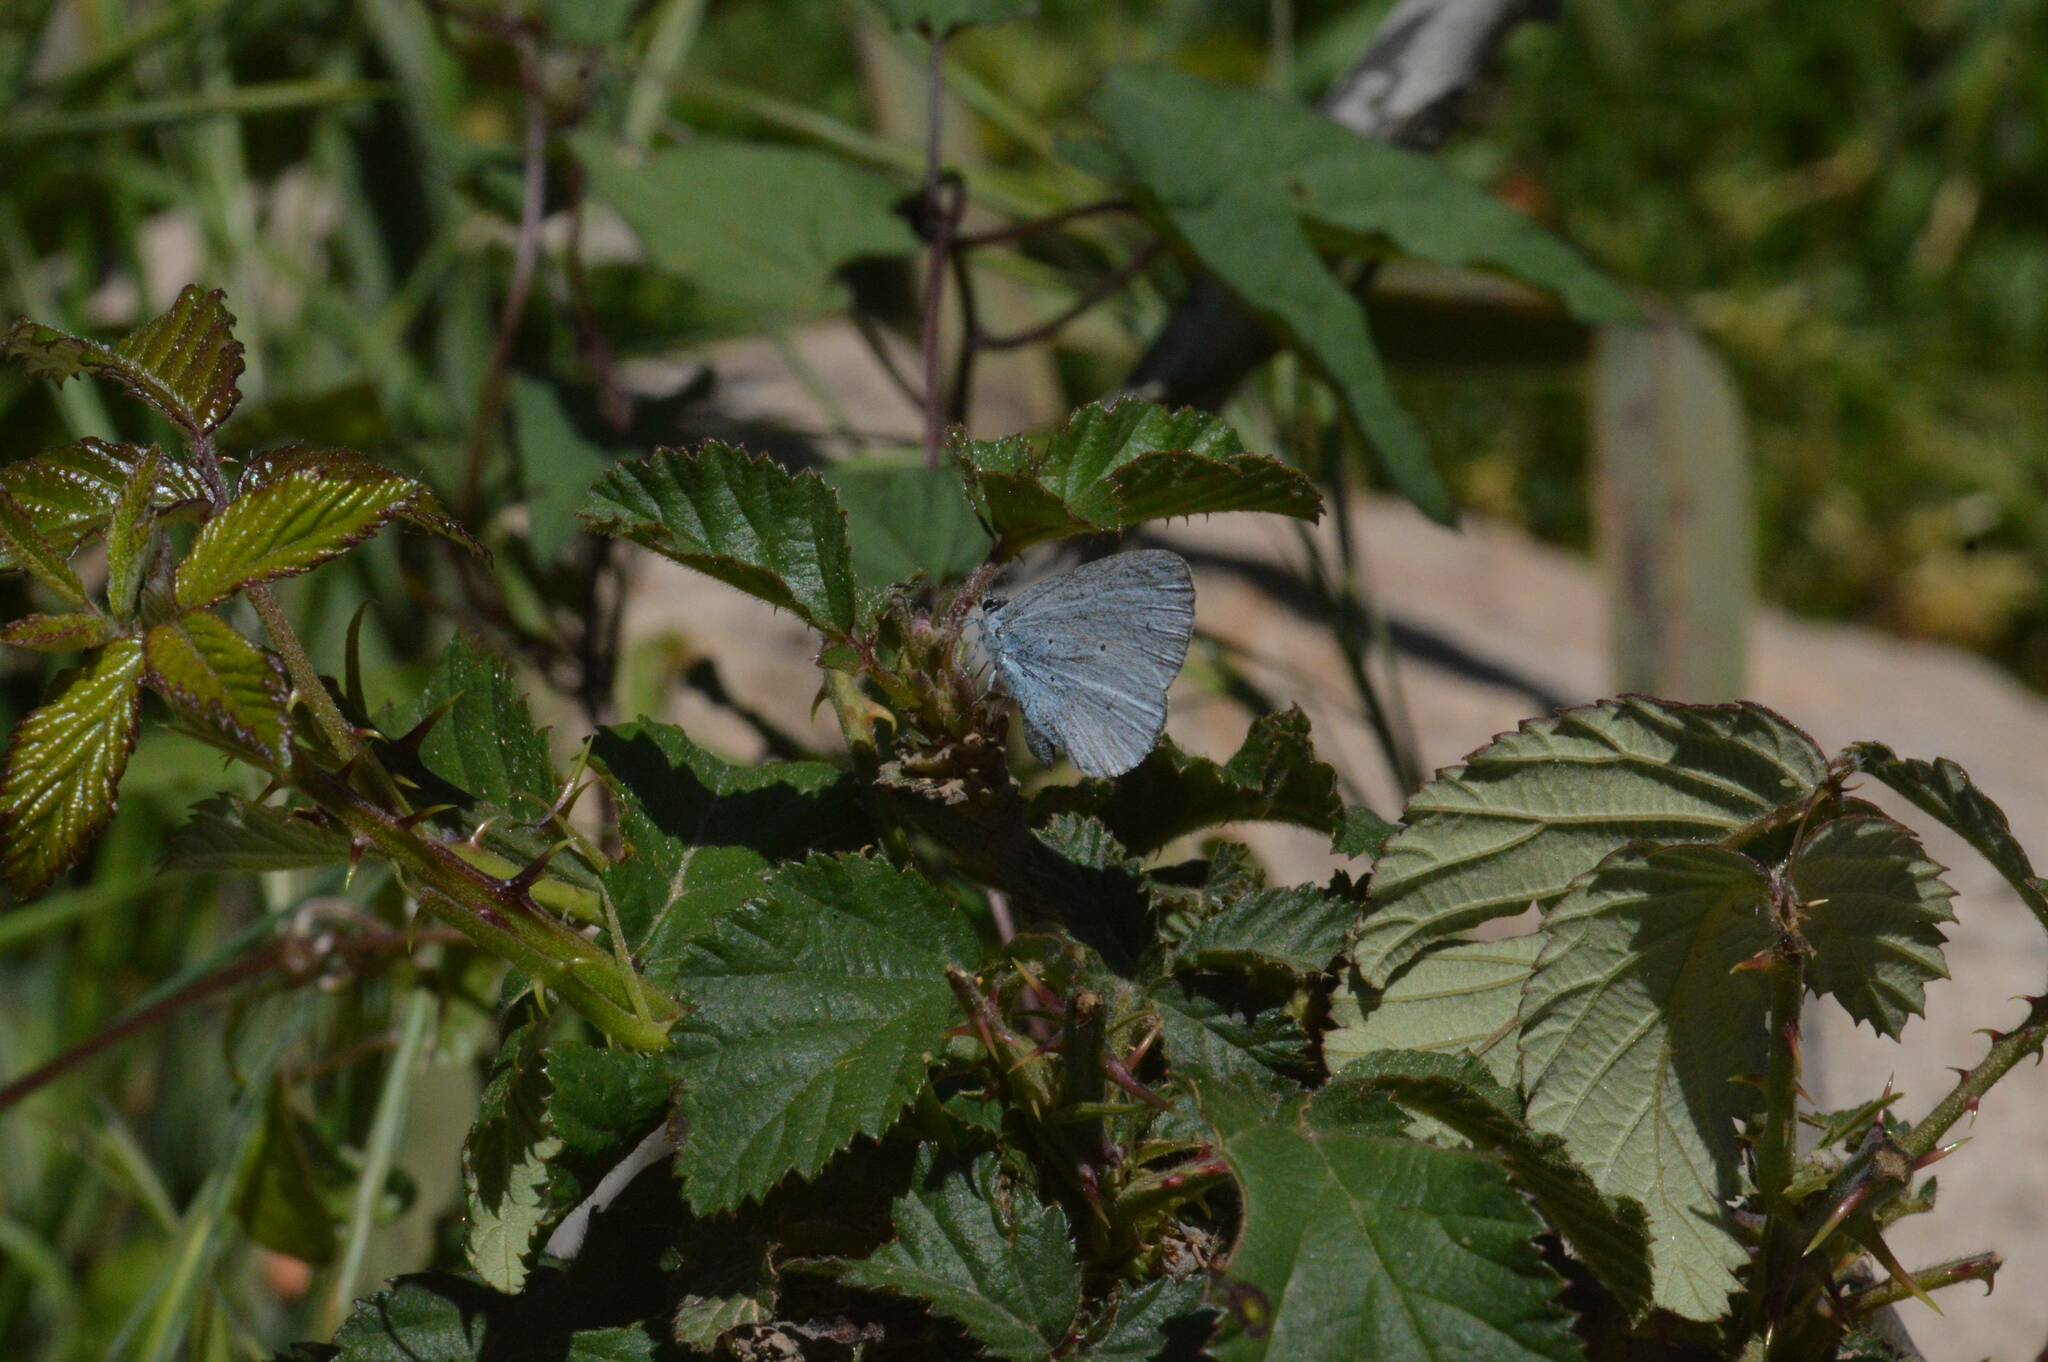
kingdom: Animalia
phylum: Arthropoda
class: Insecta
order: Lepidoptera
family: Lycaenidae
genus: Celastrina
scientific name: Celastrina argiolus
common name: Holly blue
